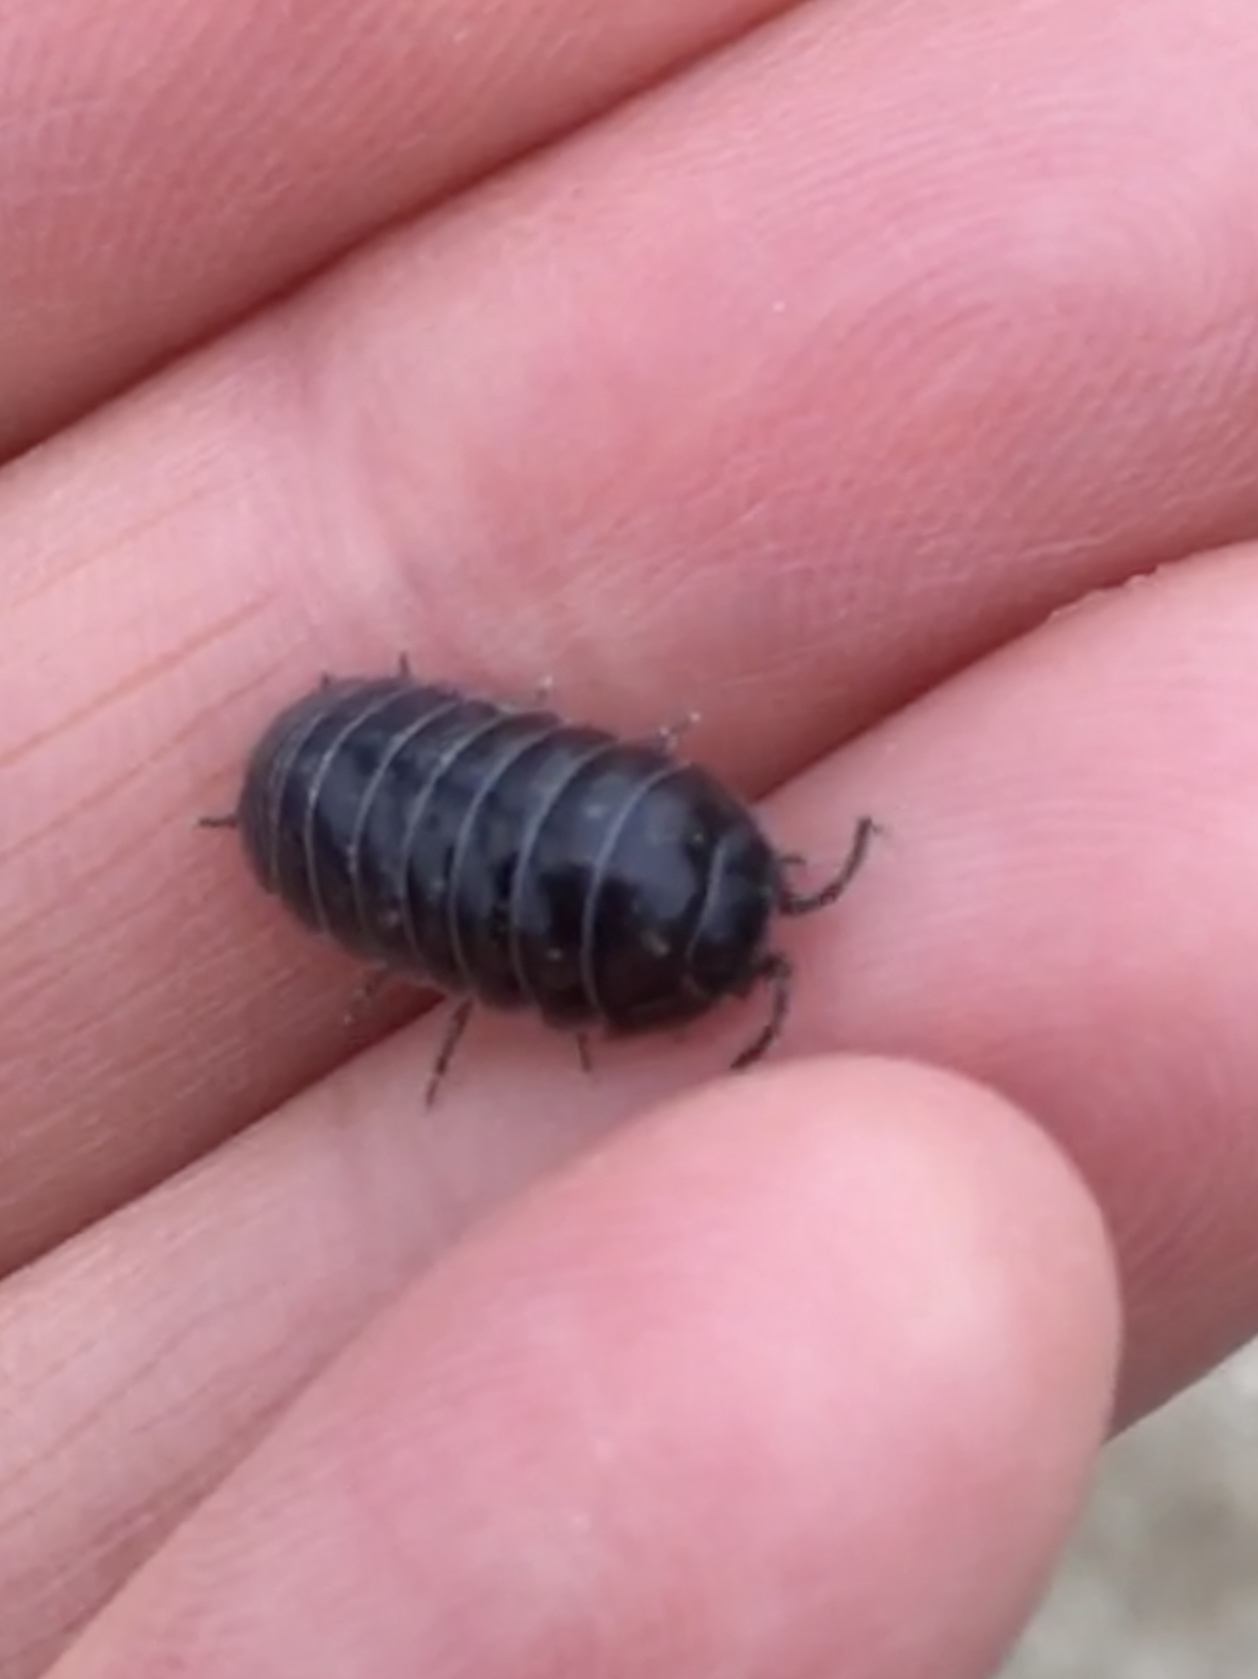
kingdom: Animalia
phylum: Arthropoda
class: Malacostraca
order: Isopoda
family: Armadillidiidae
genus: Armadillidium
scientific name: Armadillidium vulgare
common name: Common pill woodlouse
